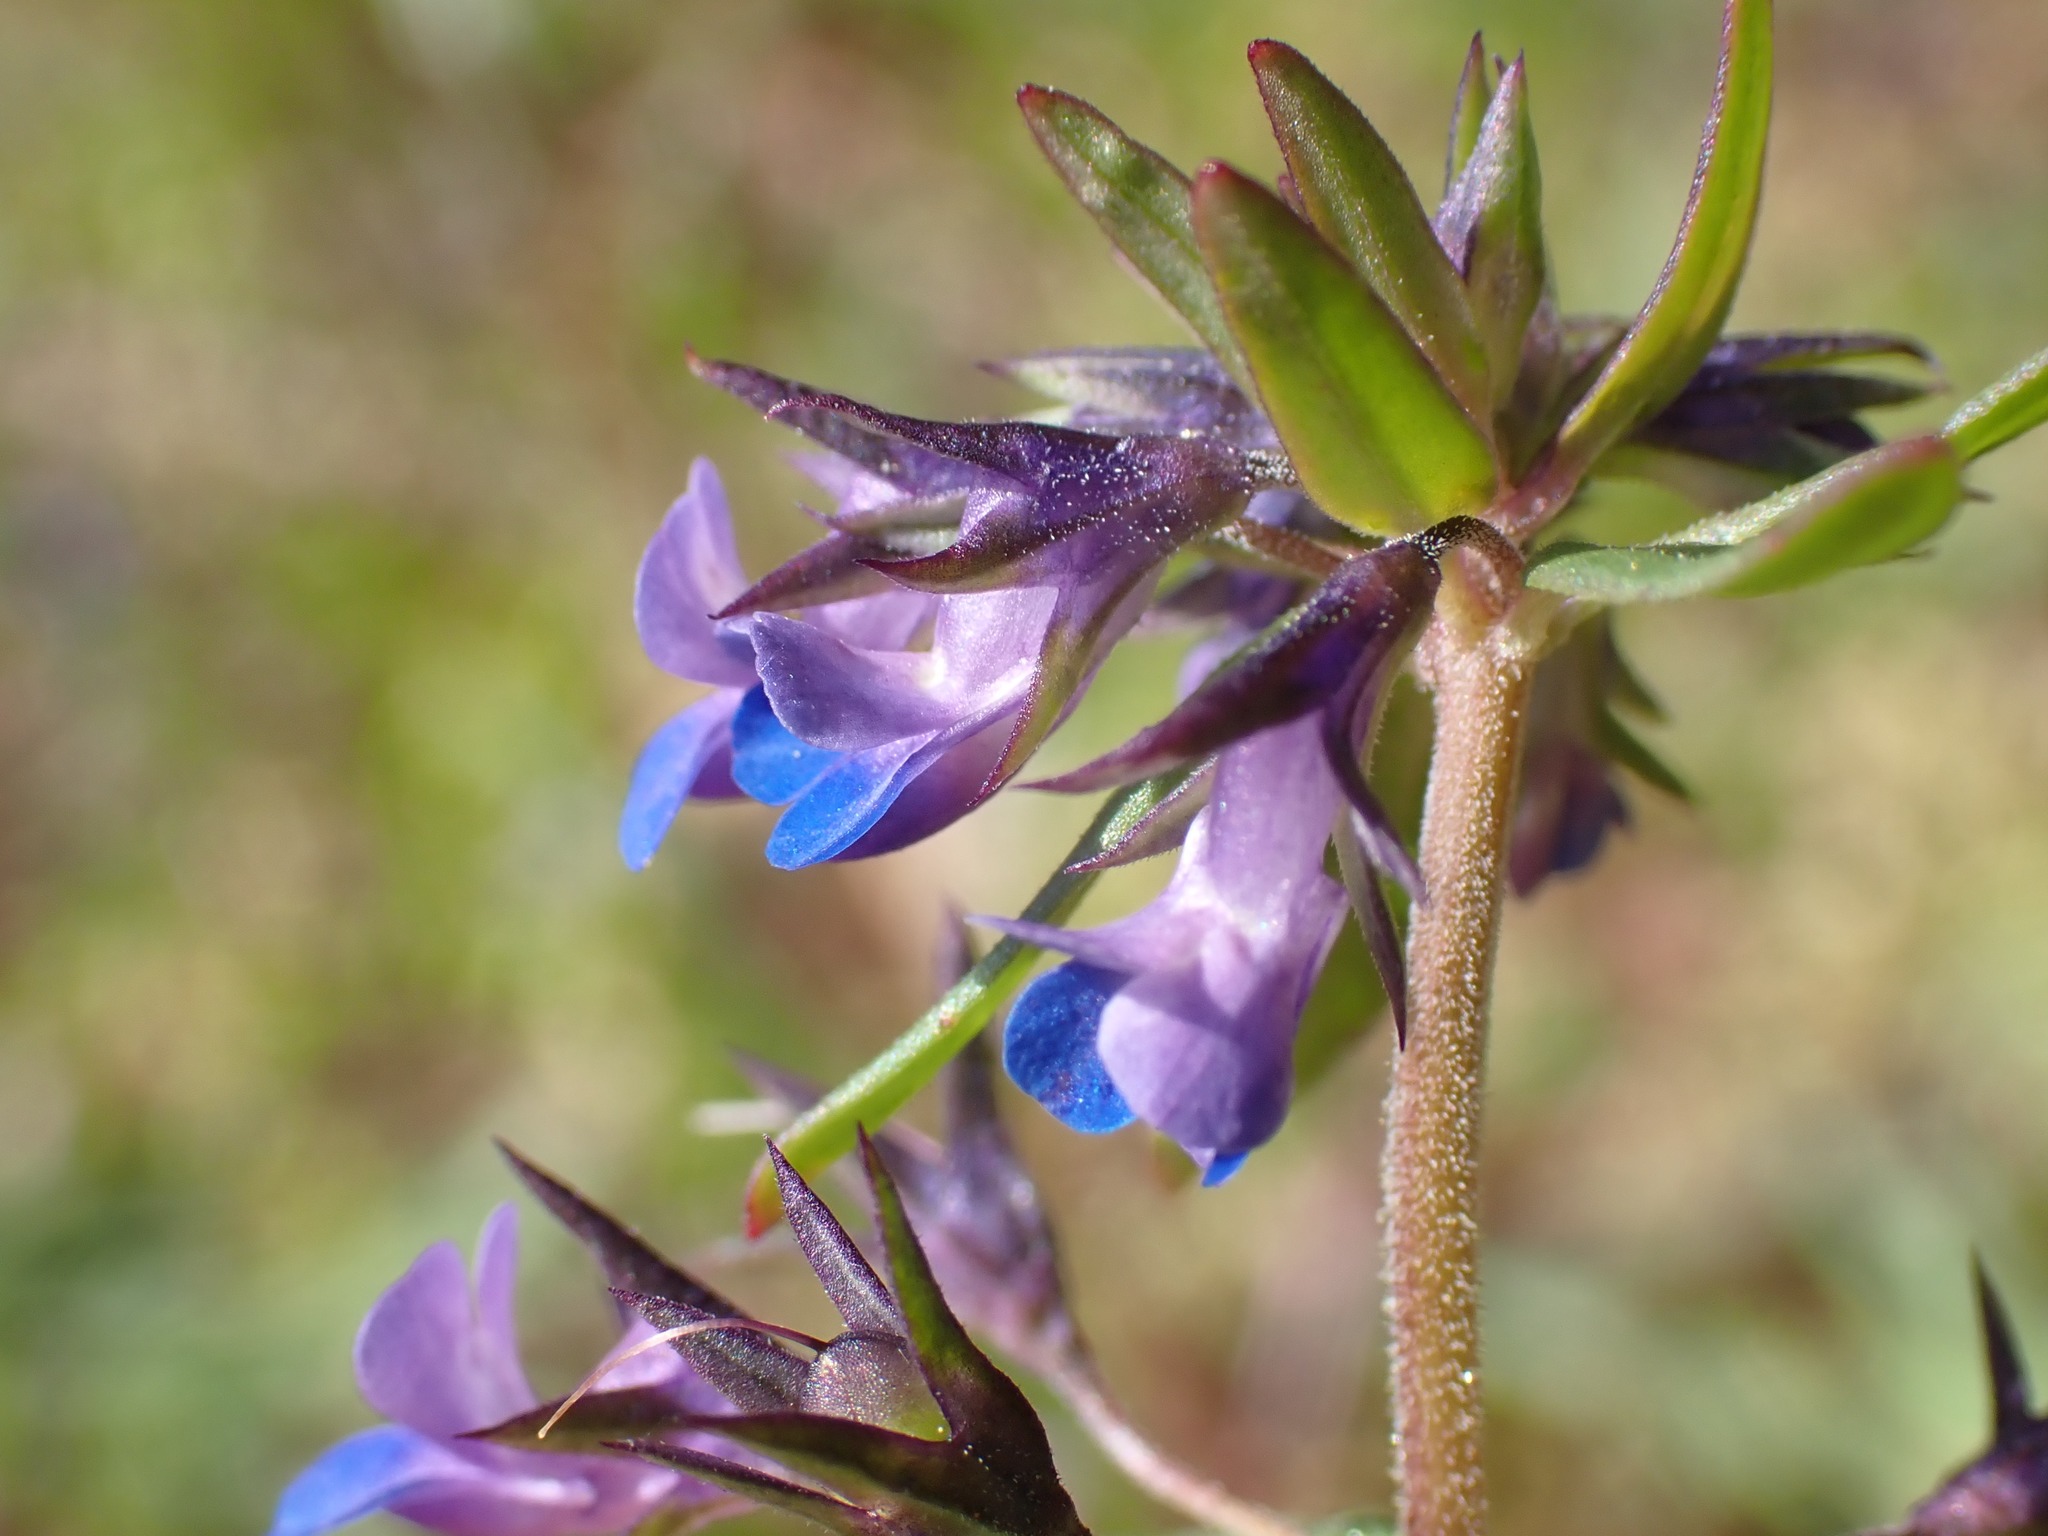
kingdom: Plantae
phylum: Tracheophyta
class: Magnoliopsida
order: Lamiales
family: Plantaginaceae
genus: Collinsia
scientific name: Collinsia parviflora
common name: Blue-lips
